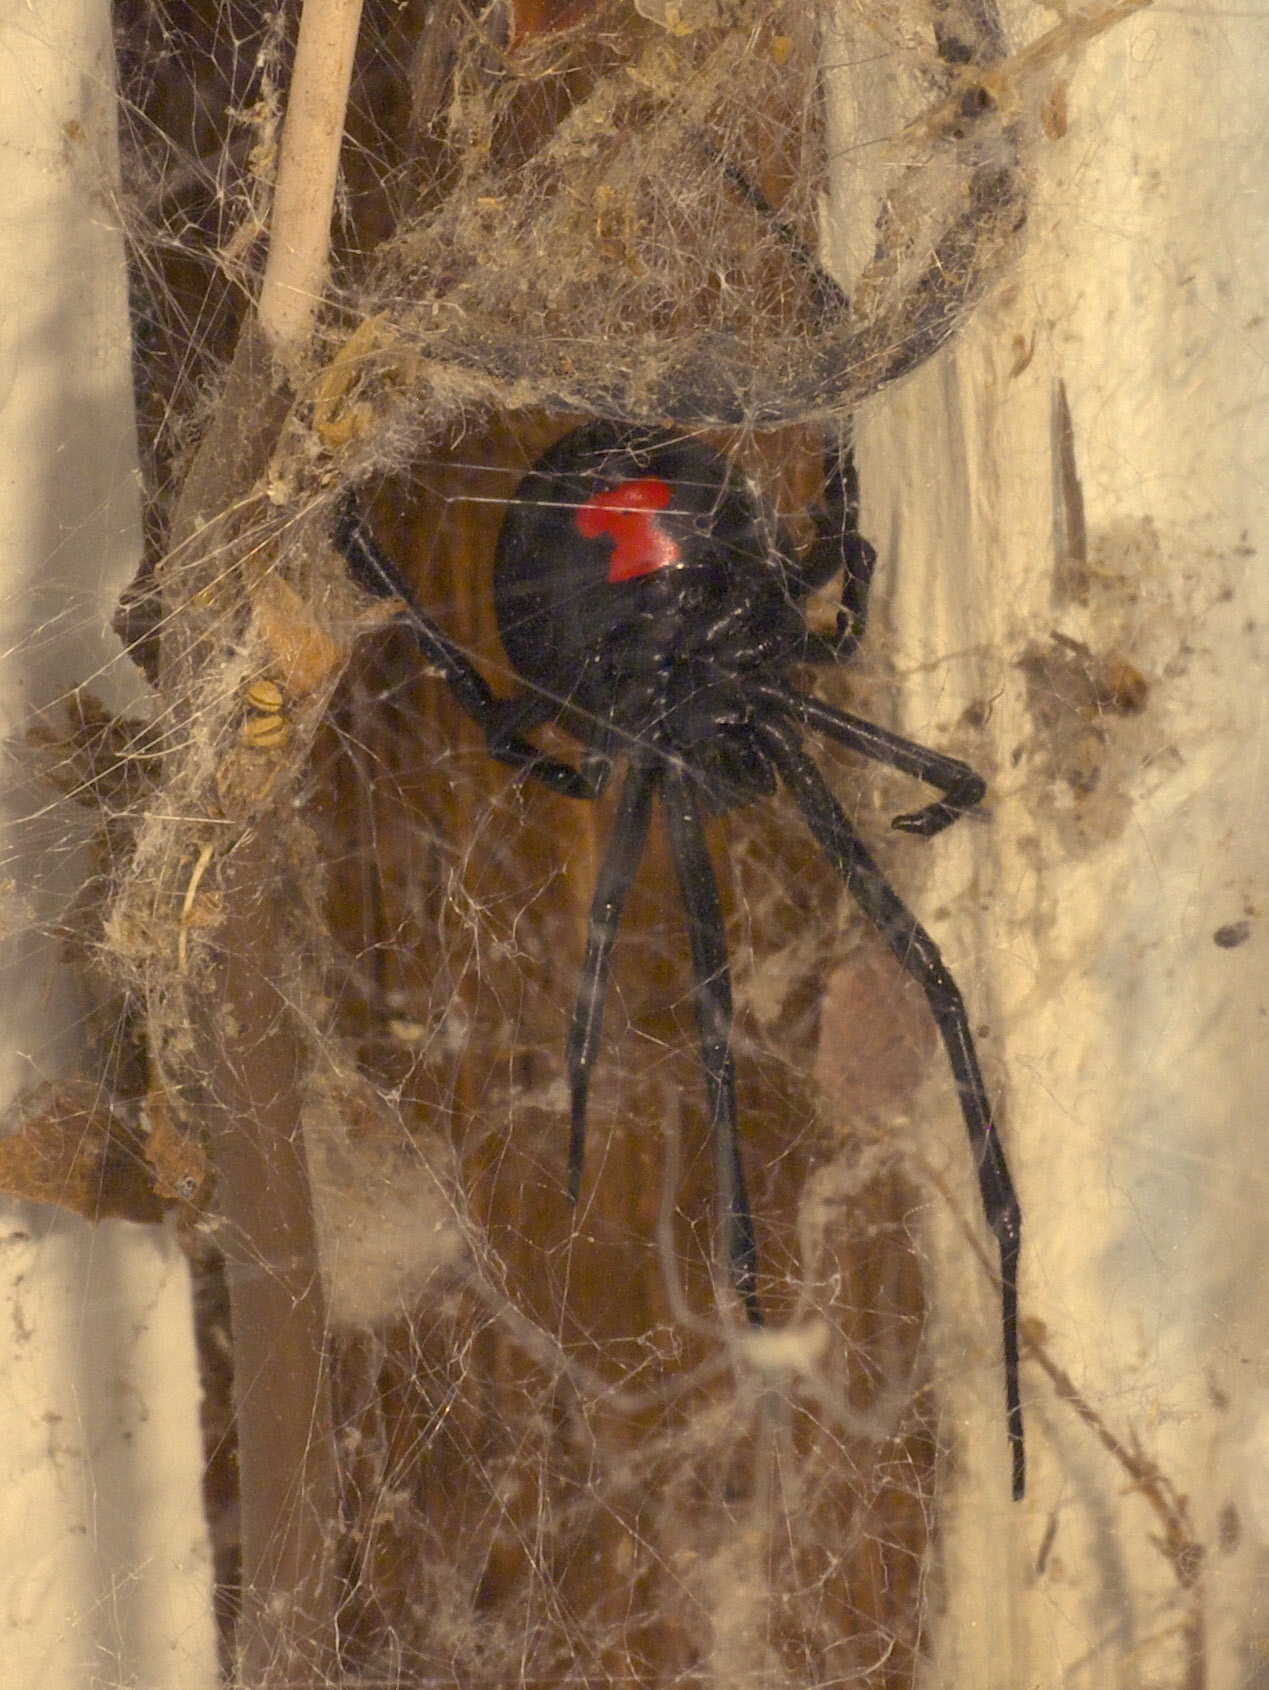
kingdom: Animalia
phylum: Arthropoda
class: Arachnida
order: Araneae
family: Theridiidae
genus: Latrodectus
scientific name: Latrodectus mactans
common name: Cobweb spiders
